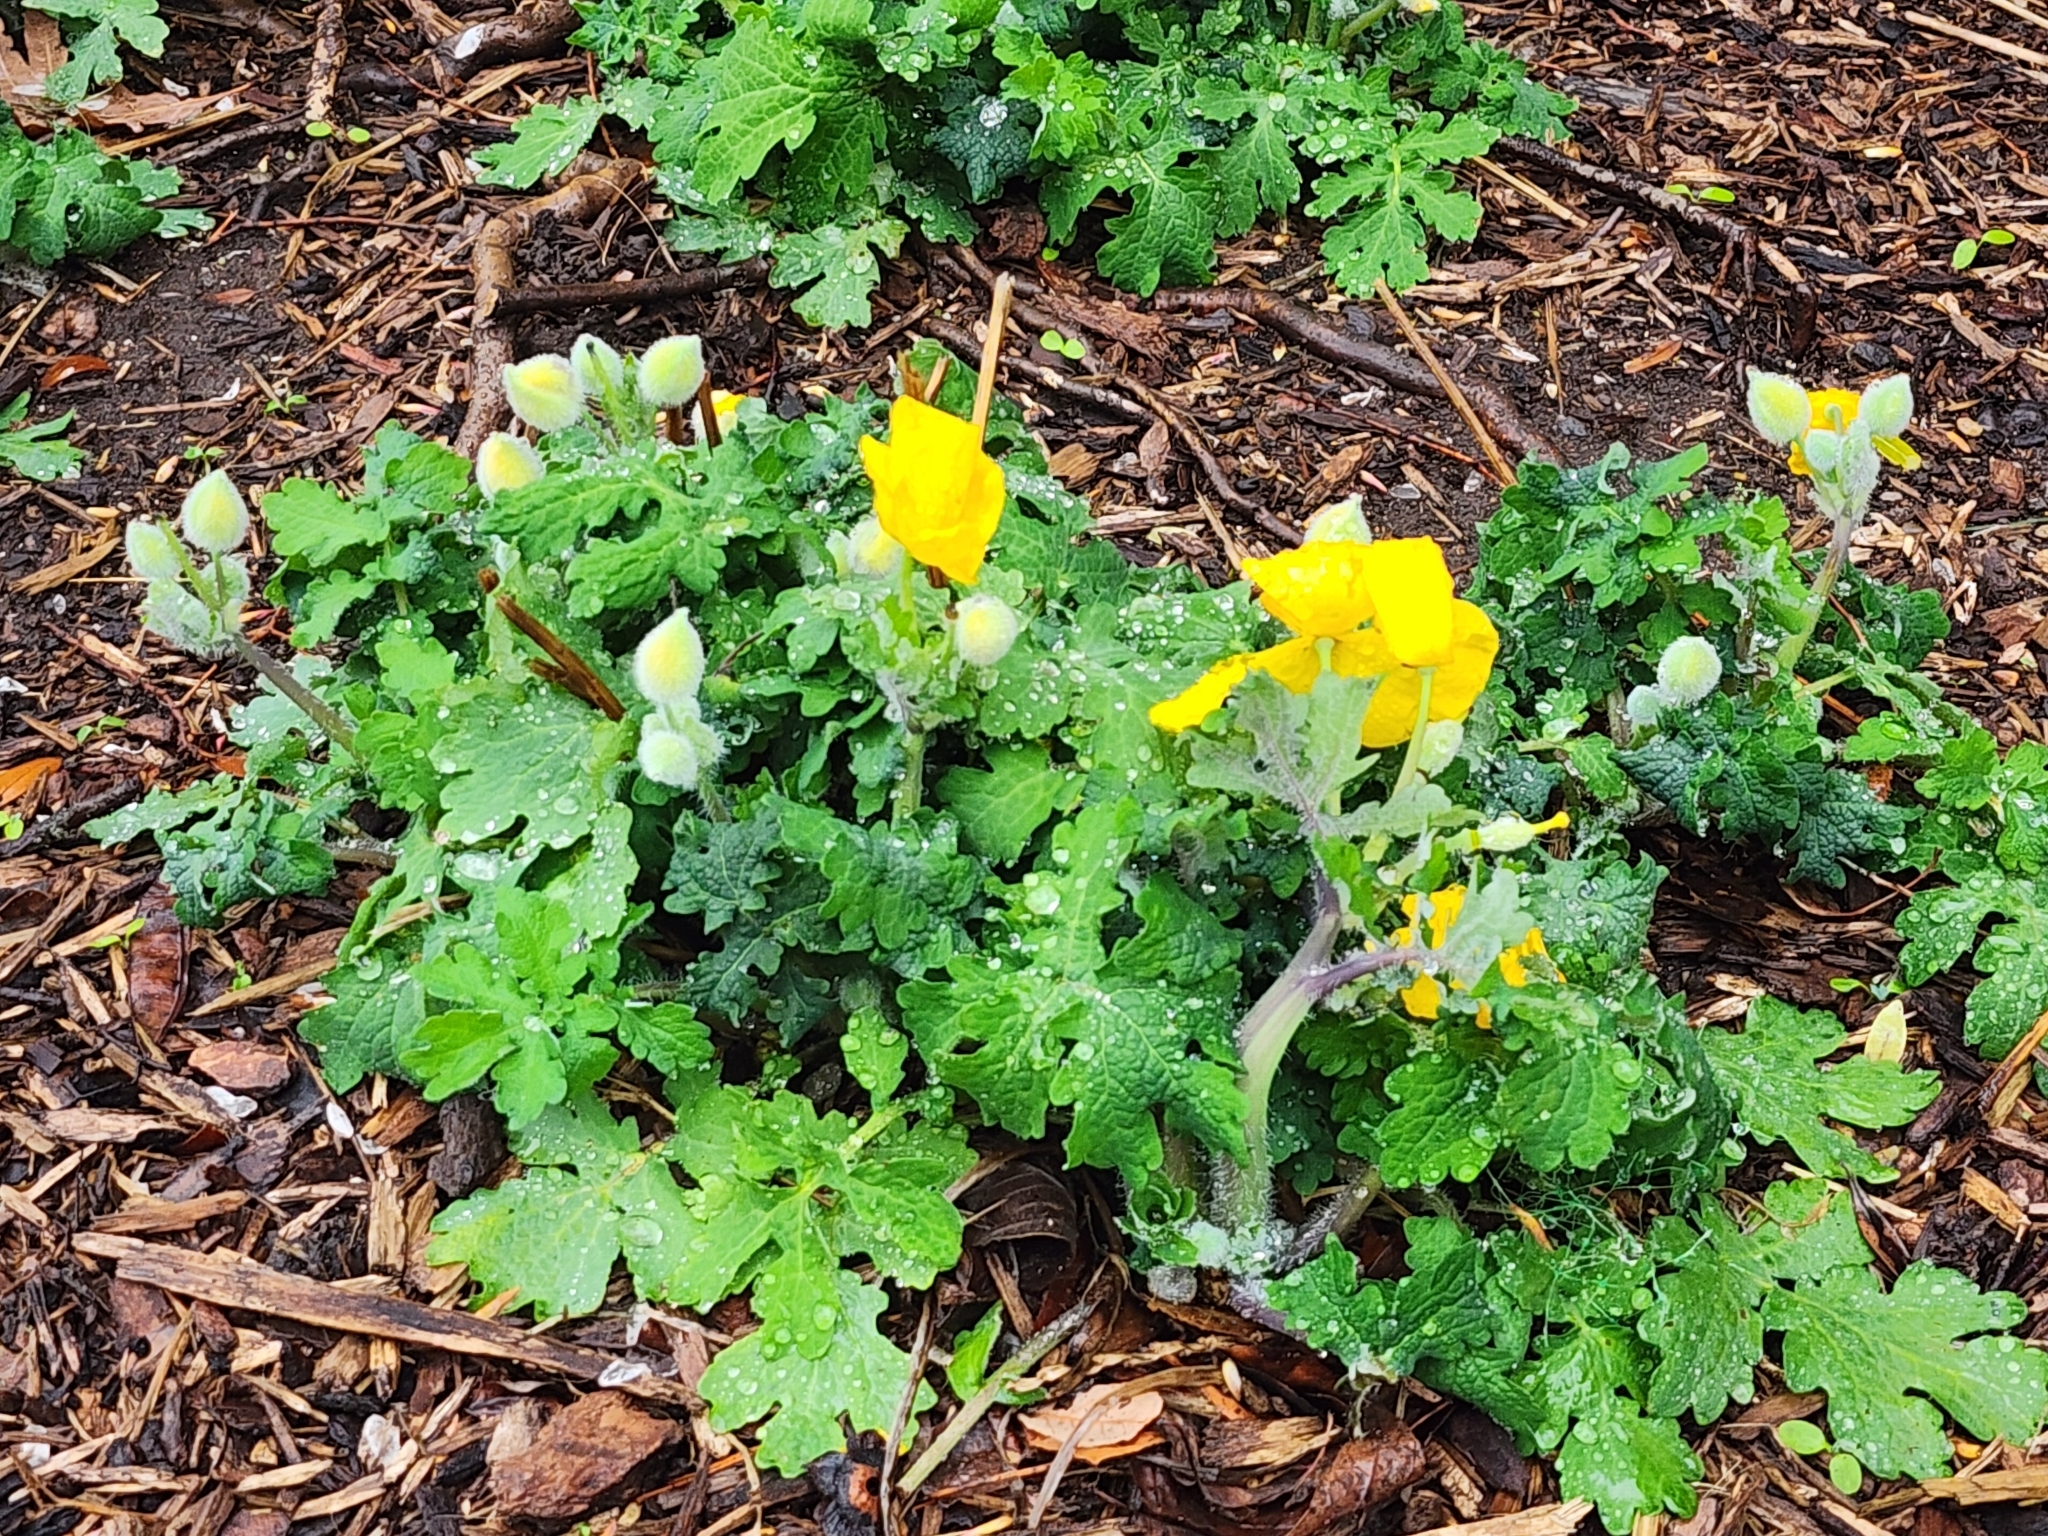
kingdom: Plantae
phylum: Tracheophyta
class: Magnoliopsida
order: Ranunculales
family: Papaveraceae
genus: Stylophorum
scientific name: Stylophorum diphyllum
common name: Celandine poppy
